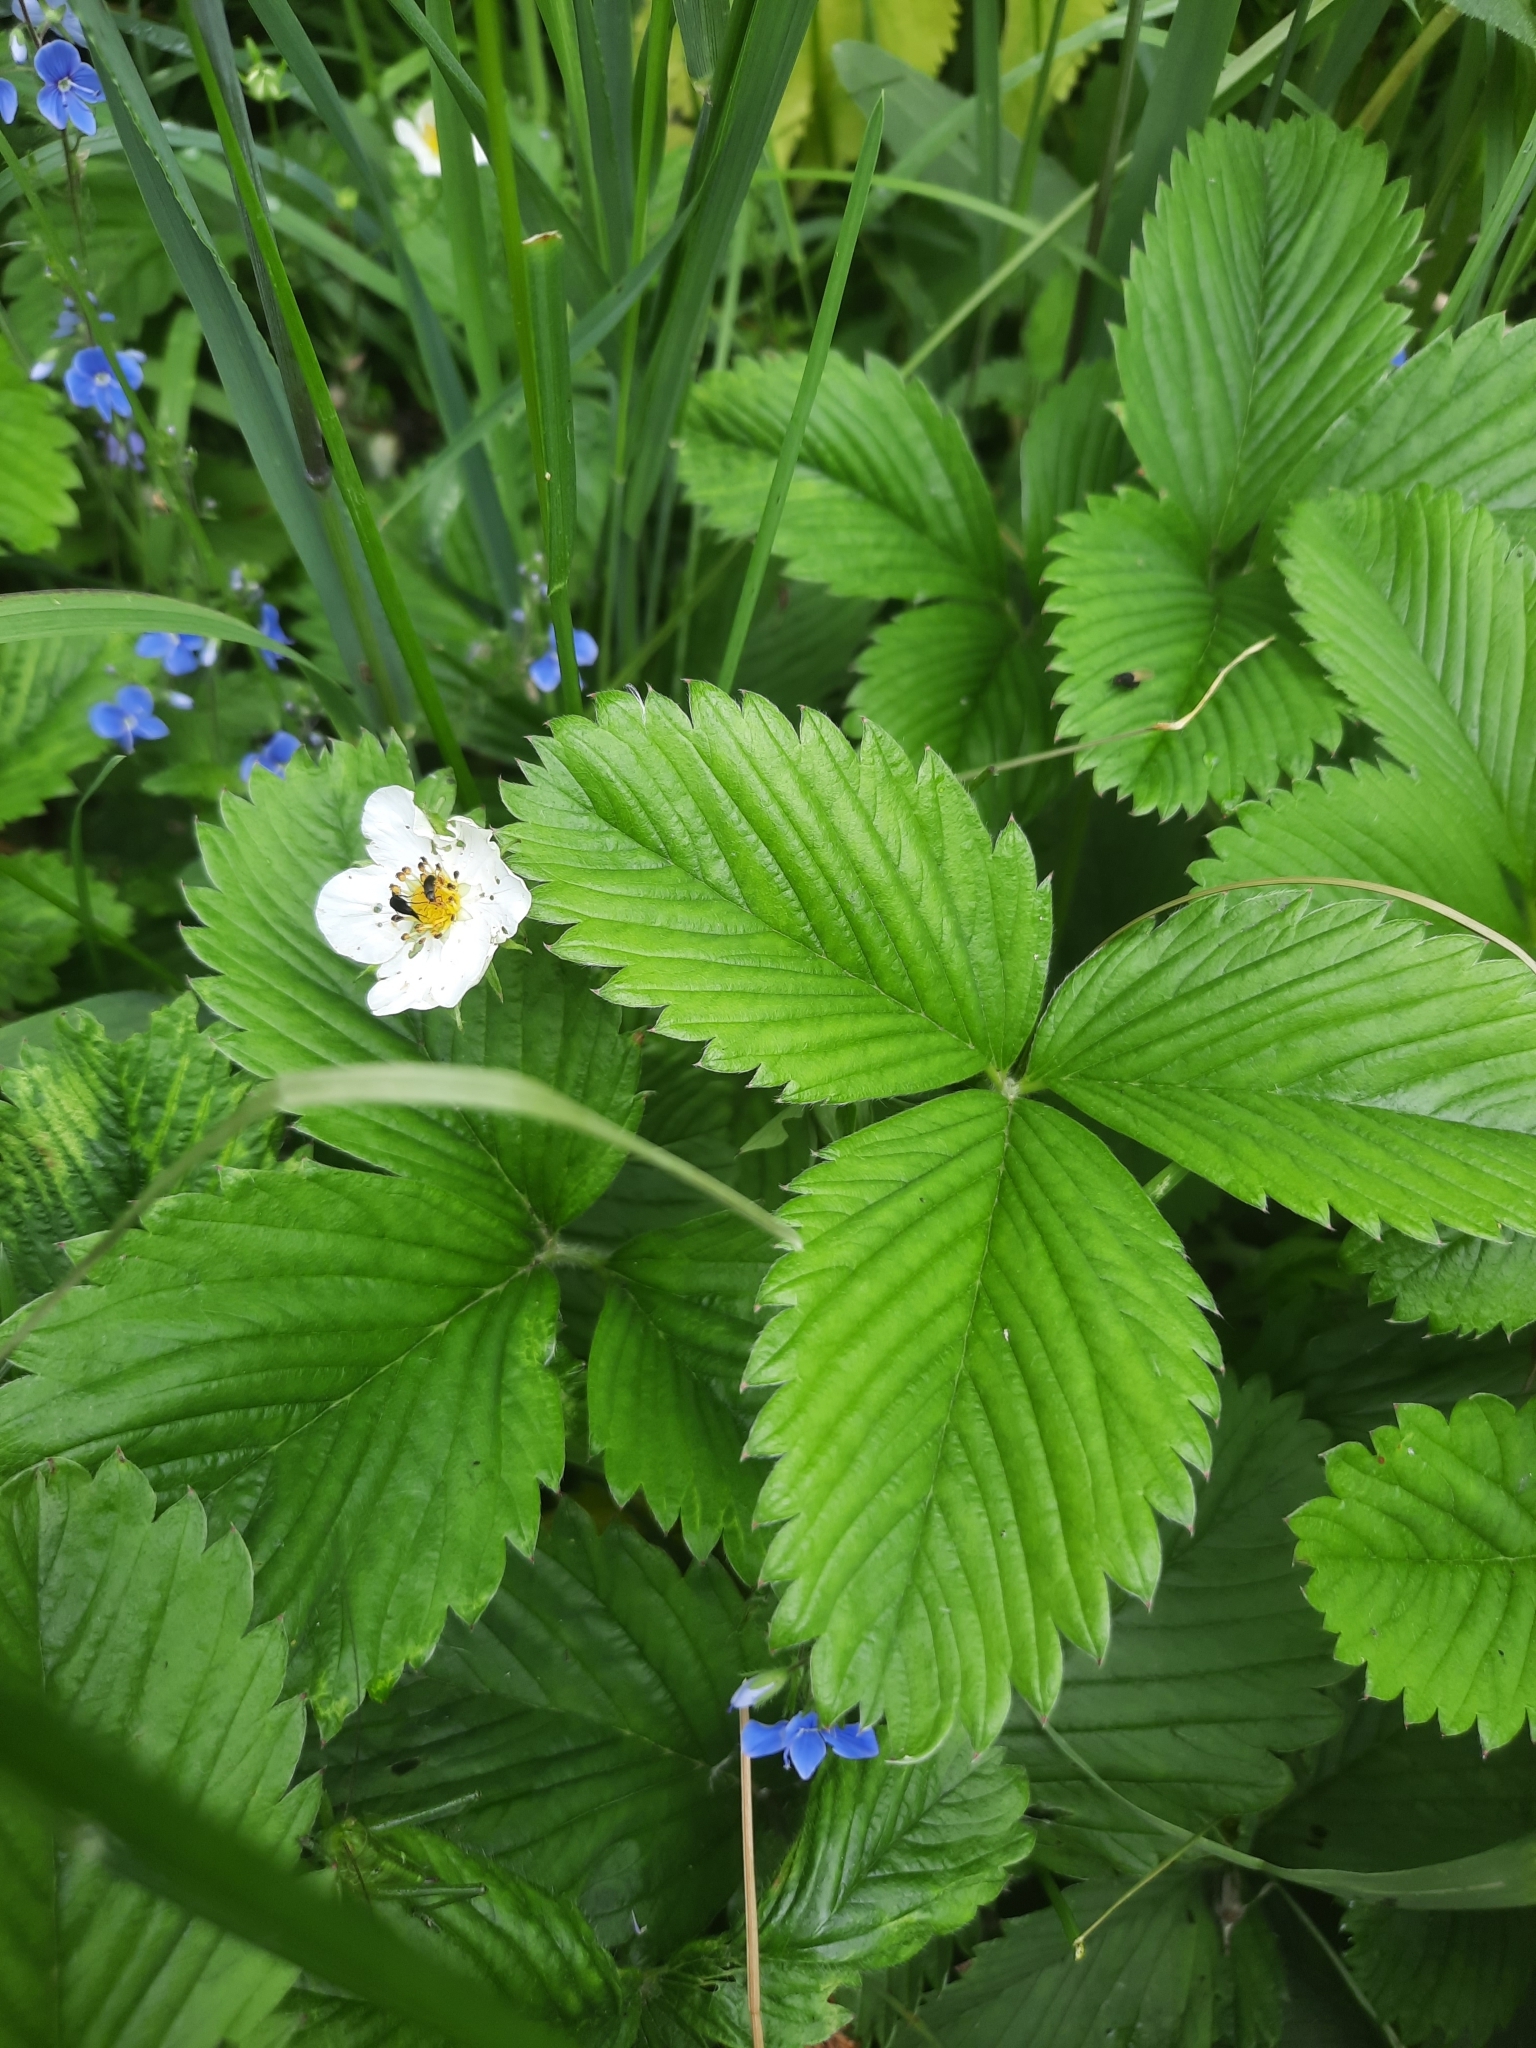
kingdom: Plantae
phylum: Tracheophyta
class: Magnoliopsida
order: Rosales
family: Rosaceae
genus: Fragaria
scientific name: Fragaria viridis
